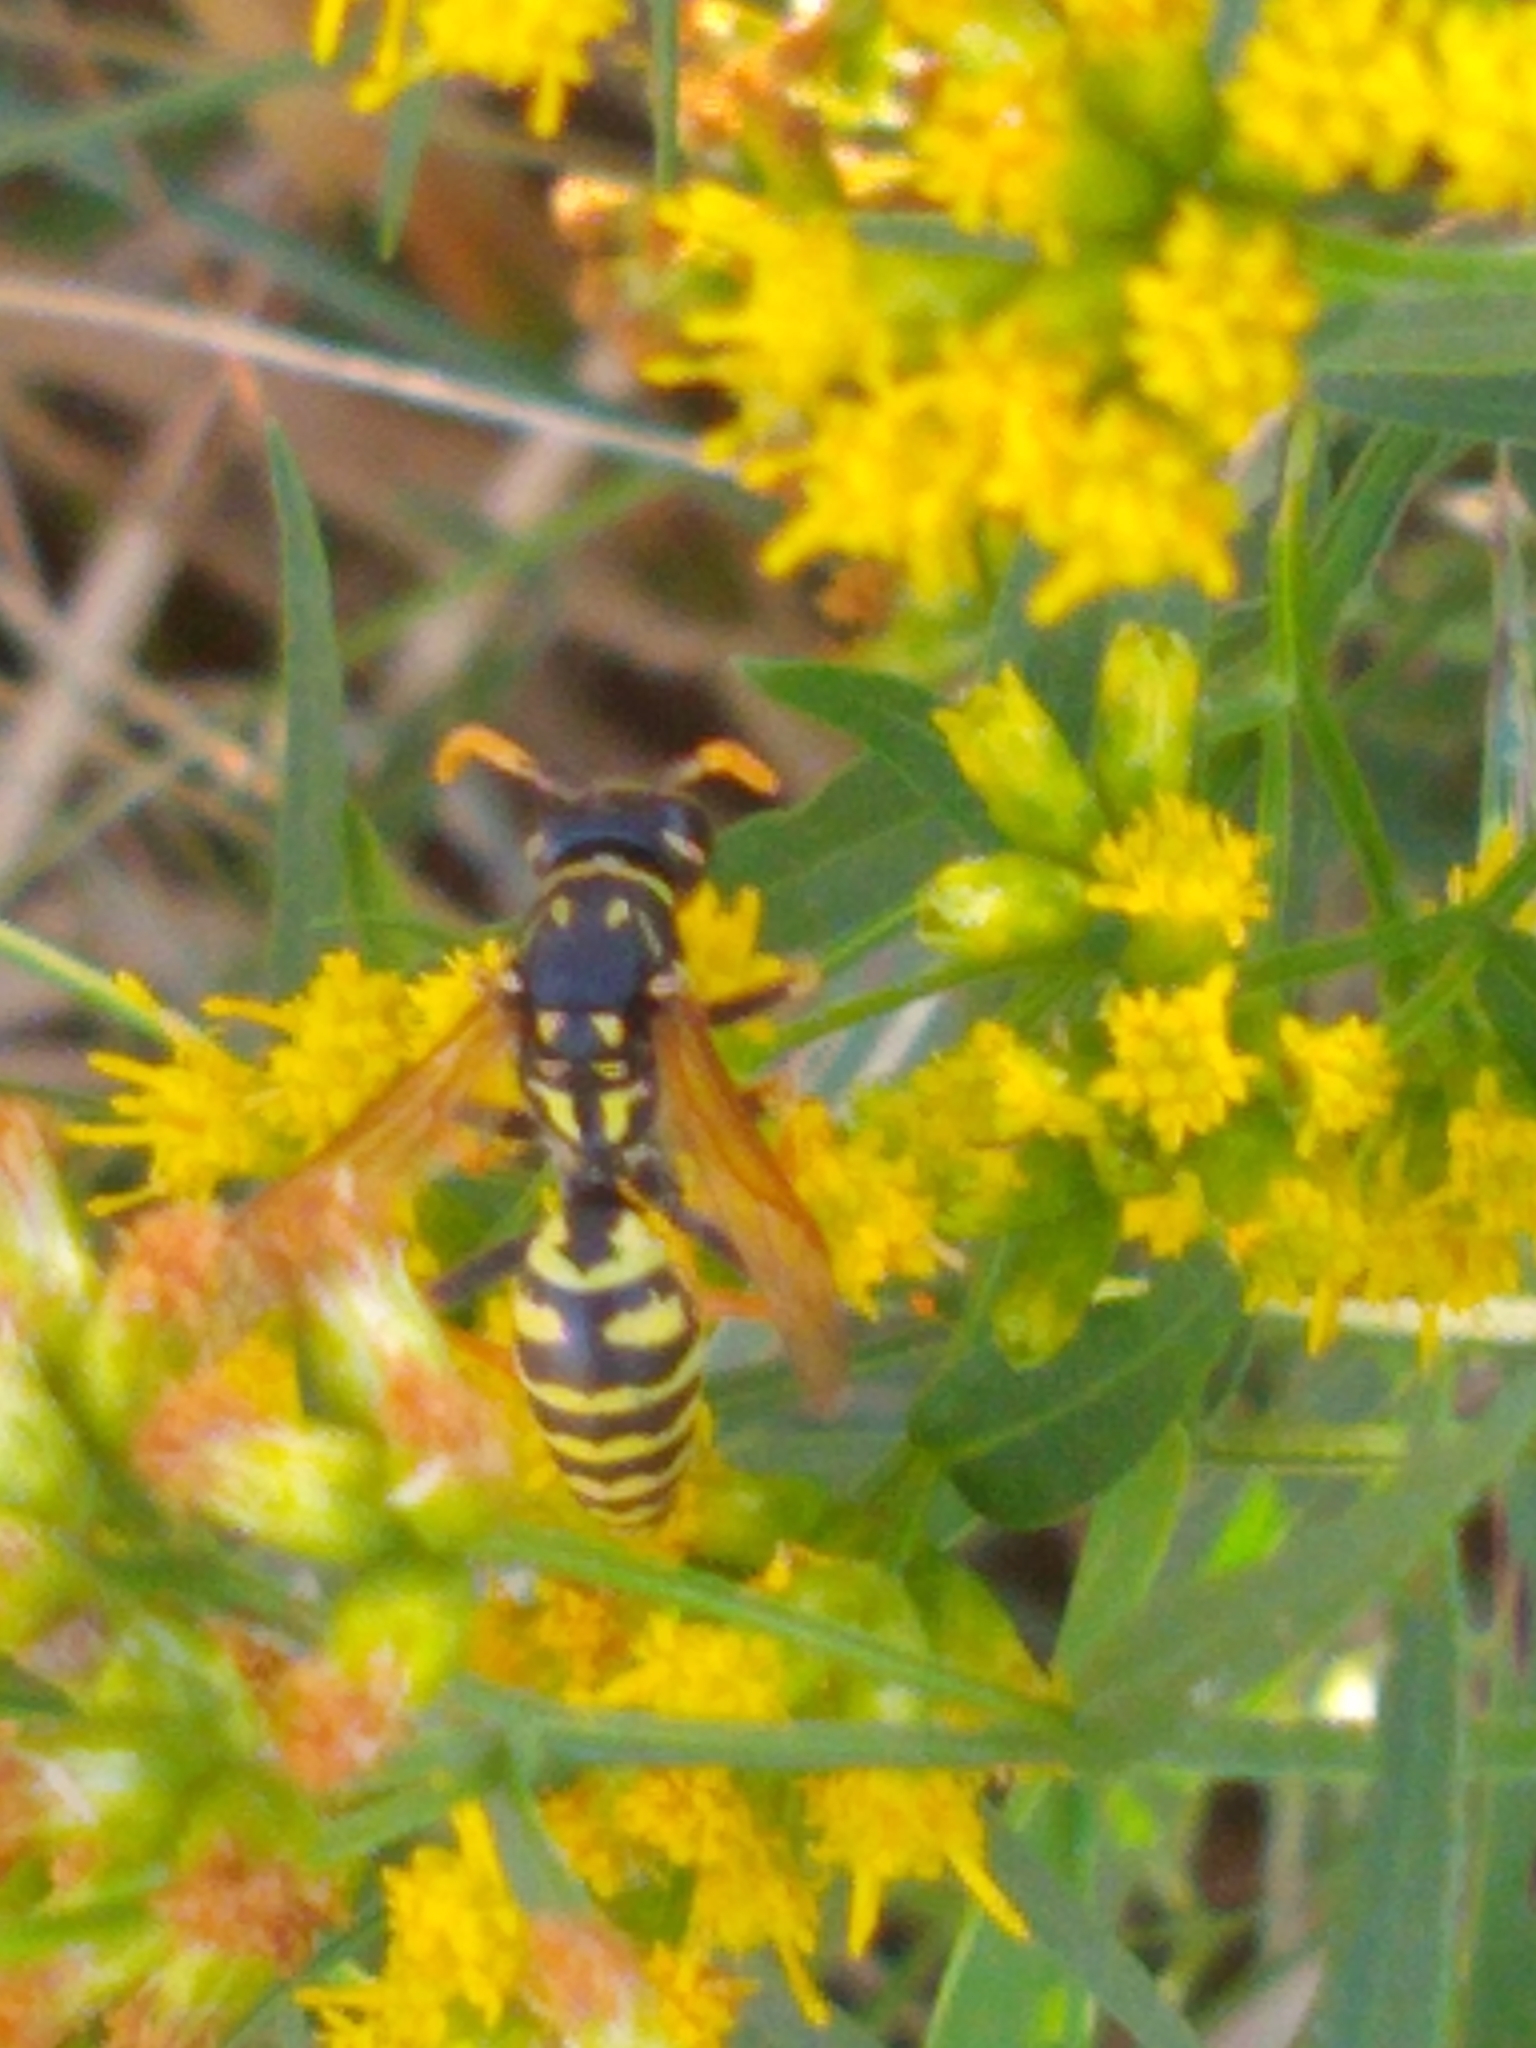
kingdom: Animalia
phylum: Arthropoda
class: Insecta
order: Hymenoptera
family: Eumenidae
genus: Polistes
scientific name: Polistes dominula
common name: Paper wasp
